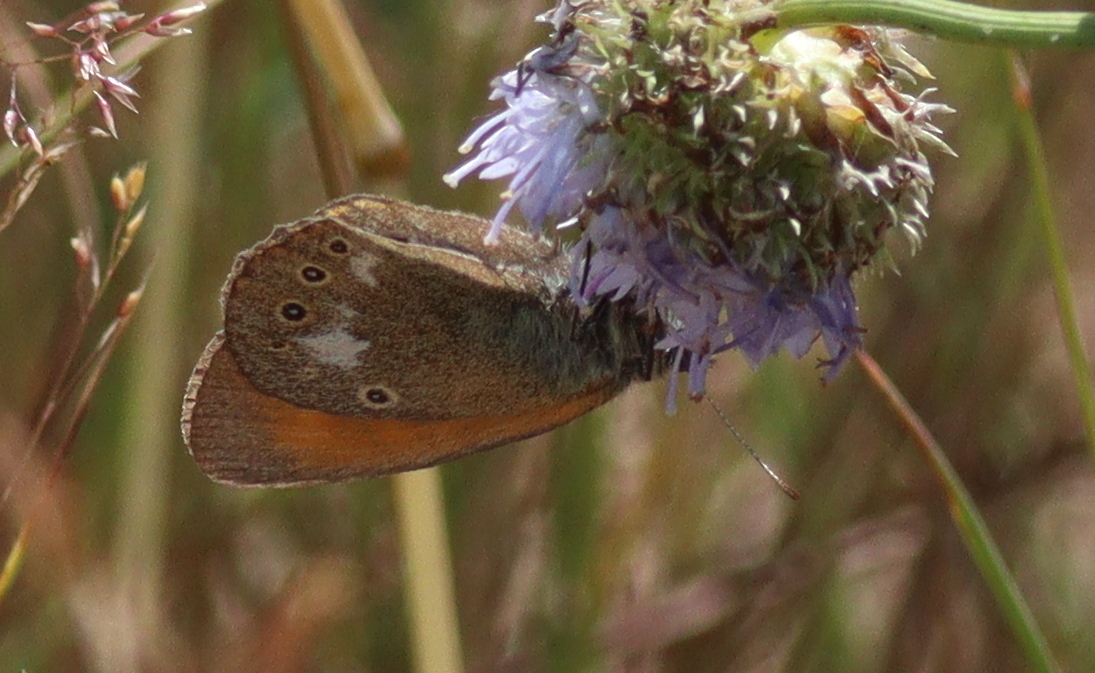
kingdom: Animalia
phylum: Arthropoda
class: Insecta
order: Lepidoptera
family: Nymphalidae
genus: Coenonympha
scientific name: Coenonympha iphis
